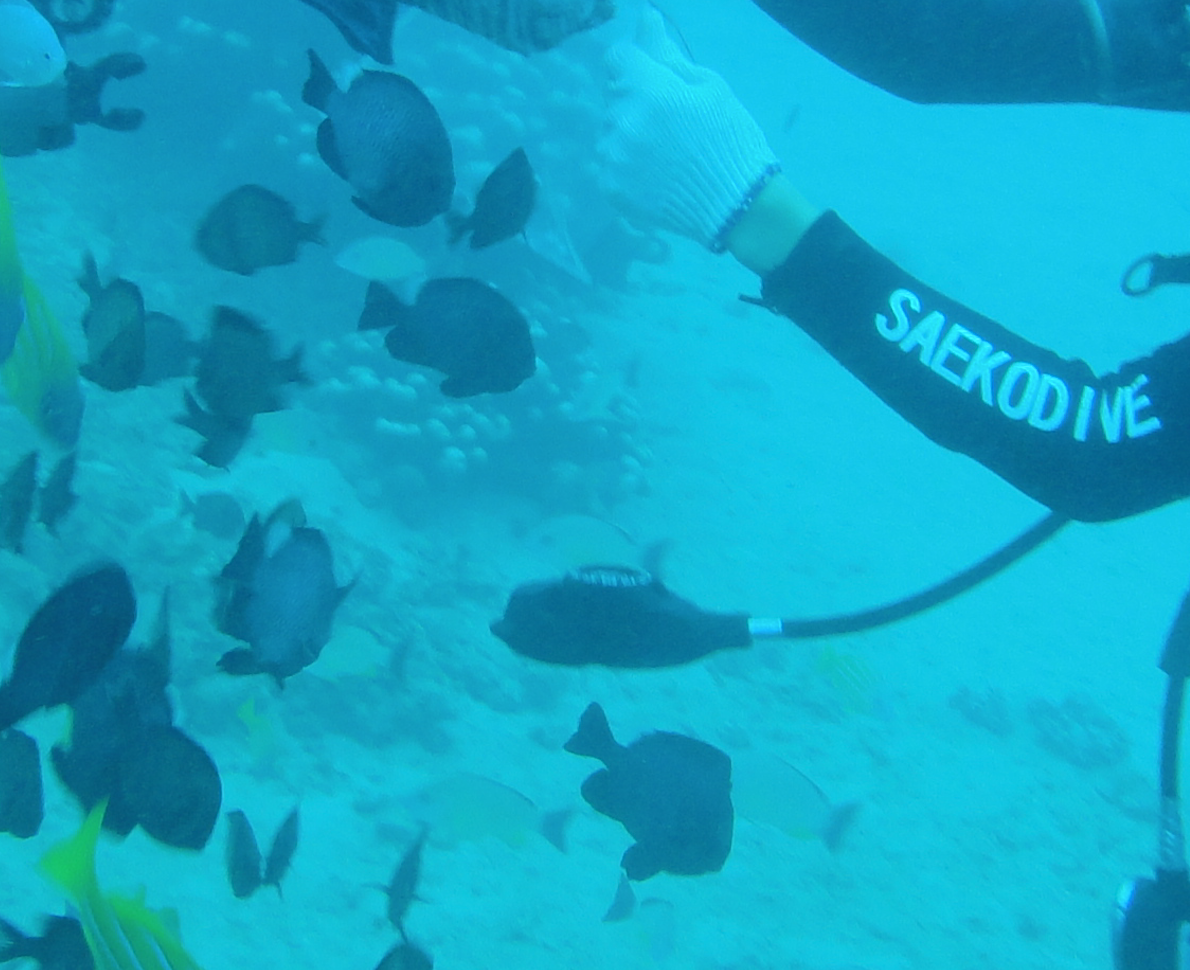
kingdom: Animalia
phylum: Chordata
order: Perciformes
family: Pomacentridae
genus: Dascyllus
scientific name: Dascyllus trimaculatus
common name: Threespot dascyllus
